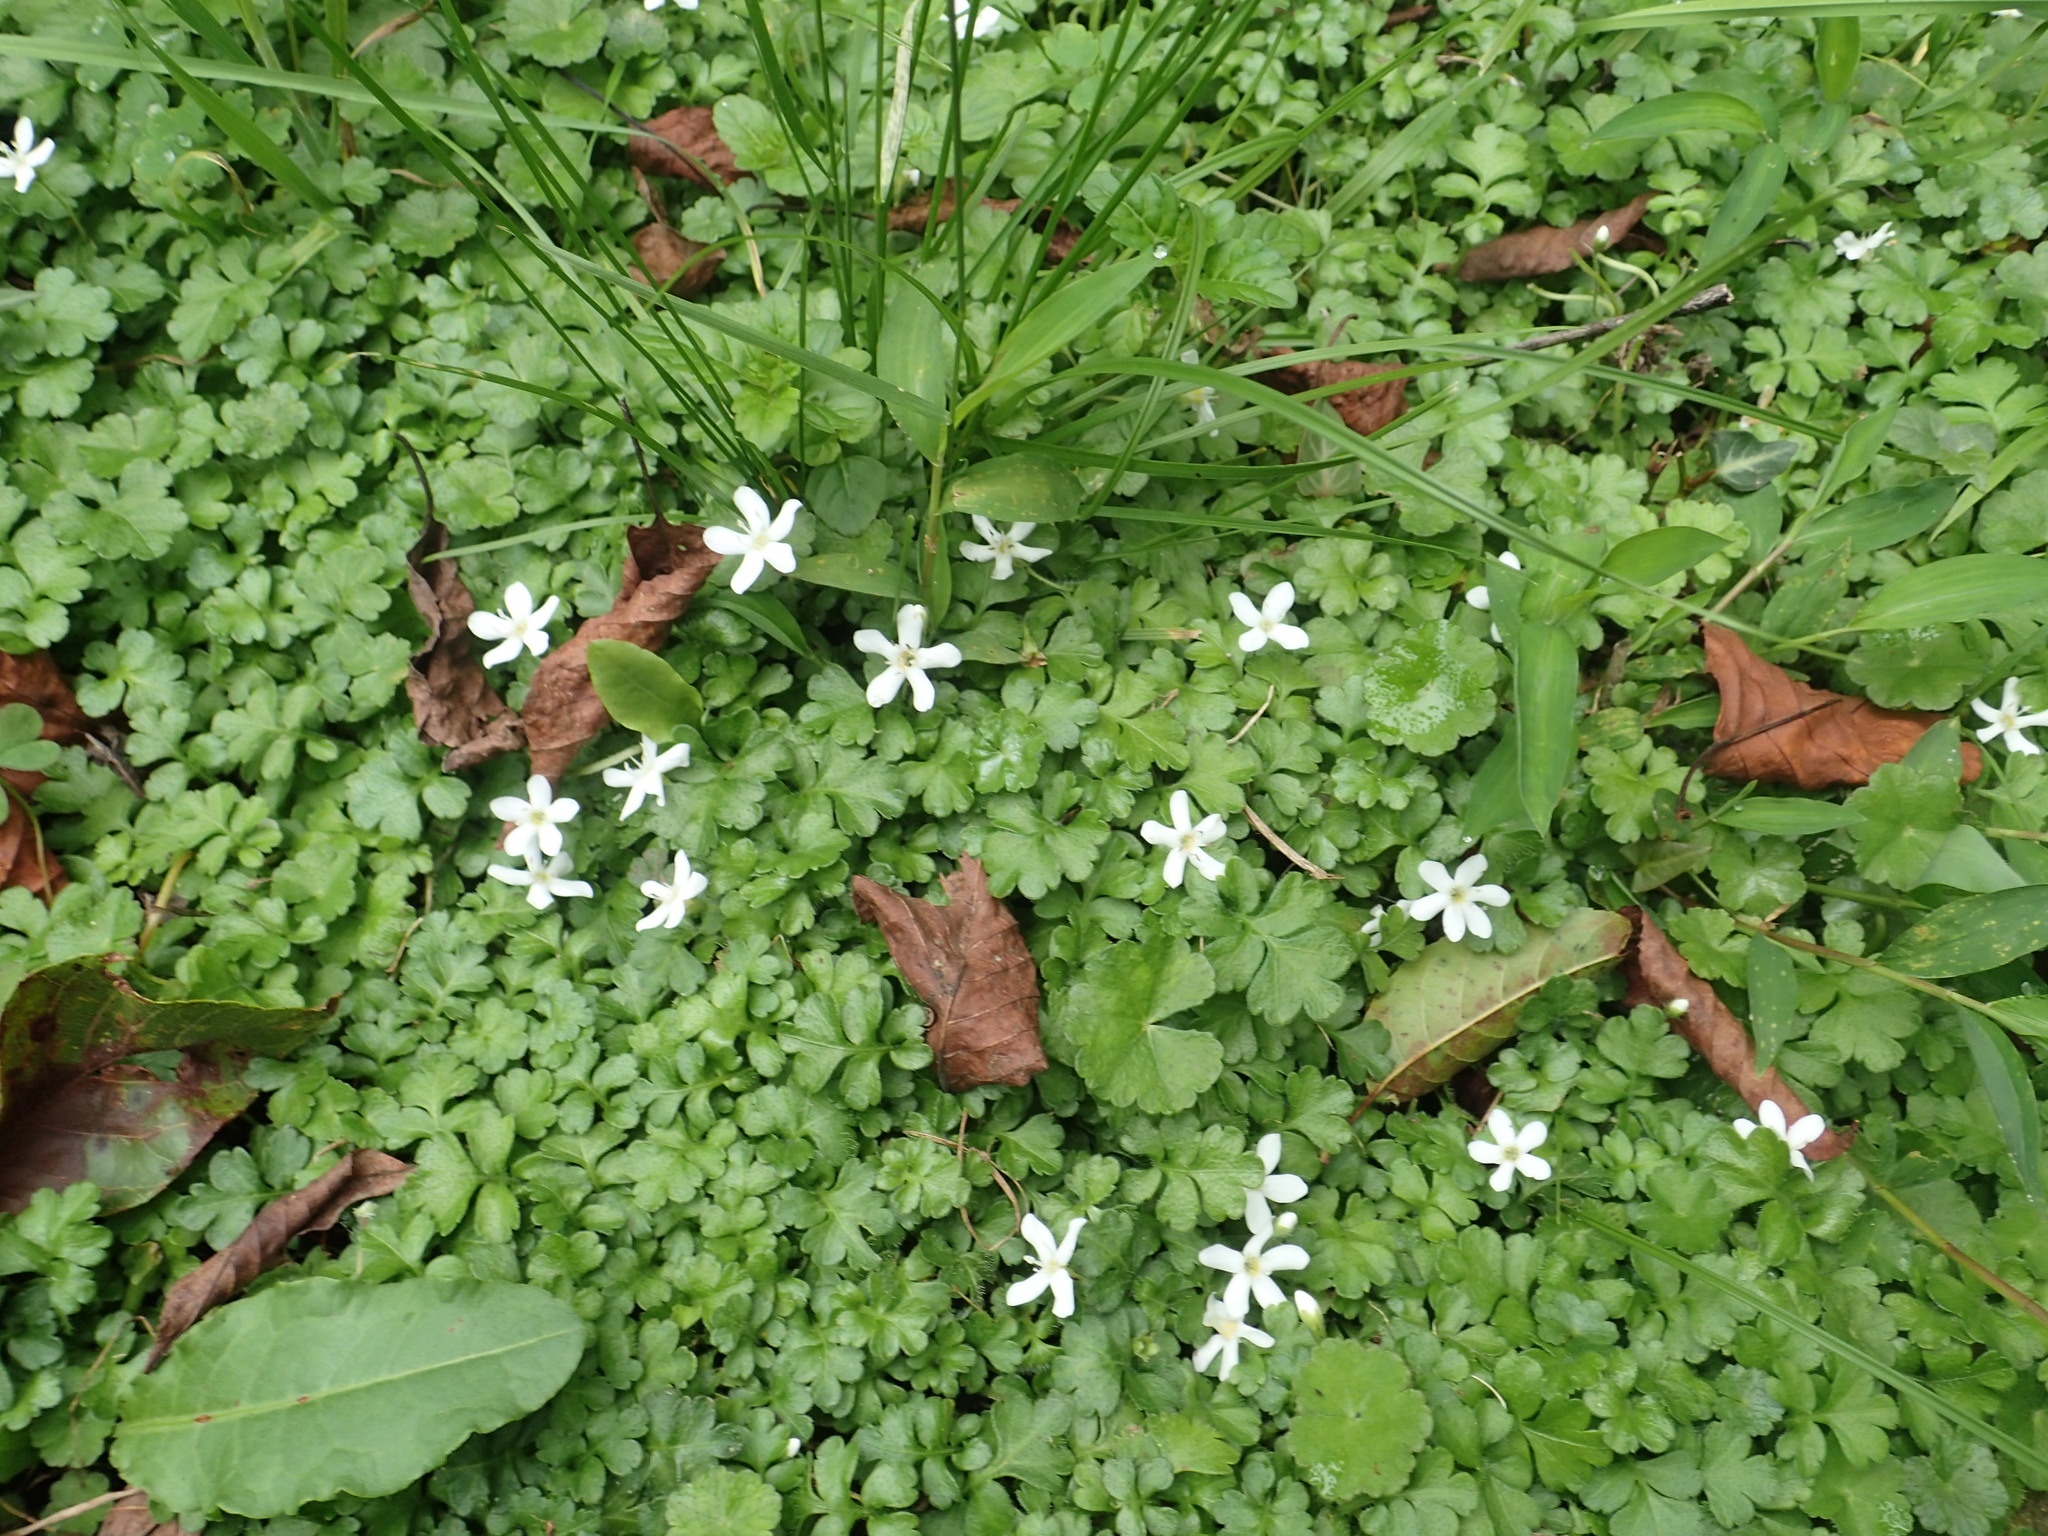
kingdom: Plantae
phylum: Tracheophyta
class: Magnoliopsida
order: Lamiales
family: Plantaginaceae
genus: Ellisiophyllum
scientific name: Ellisiophyllum pinnatum
